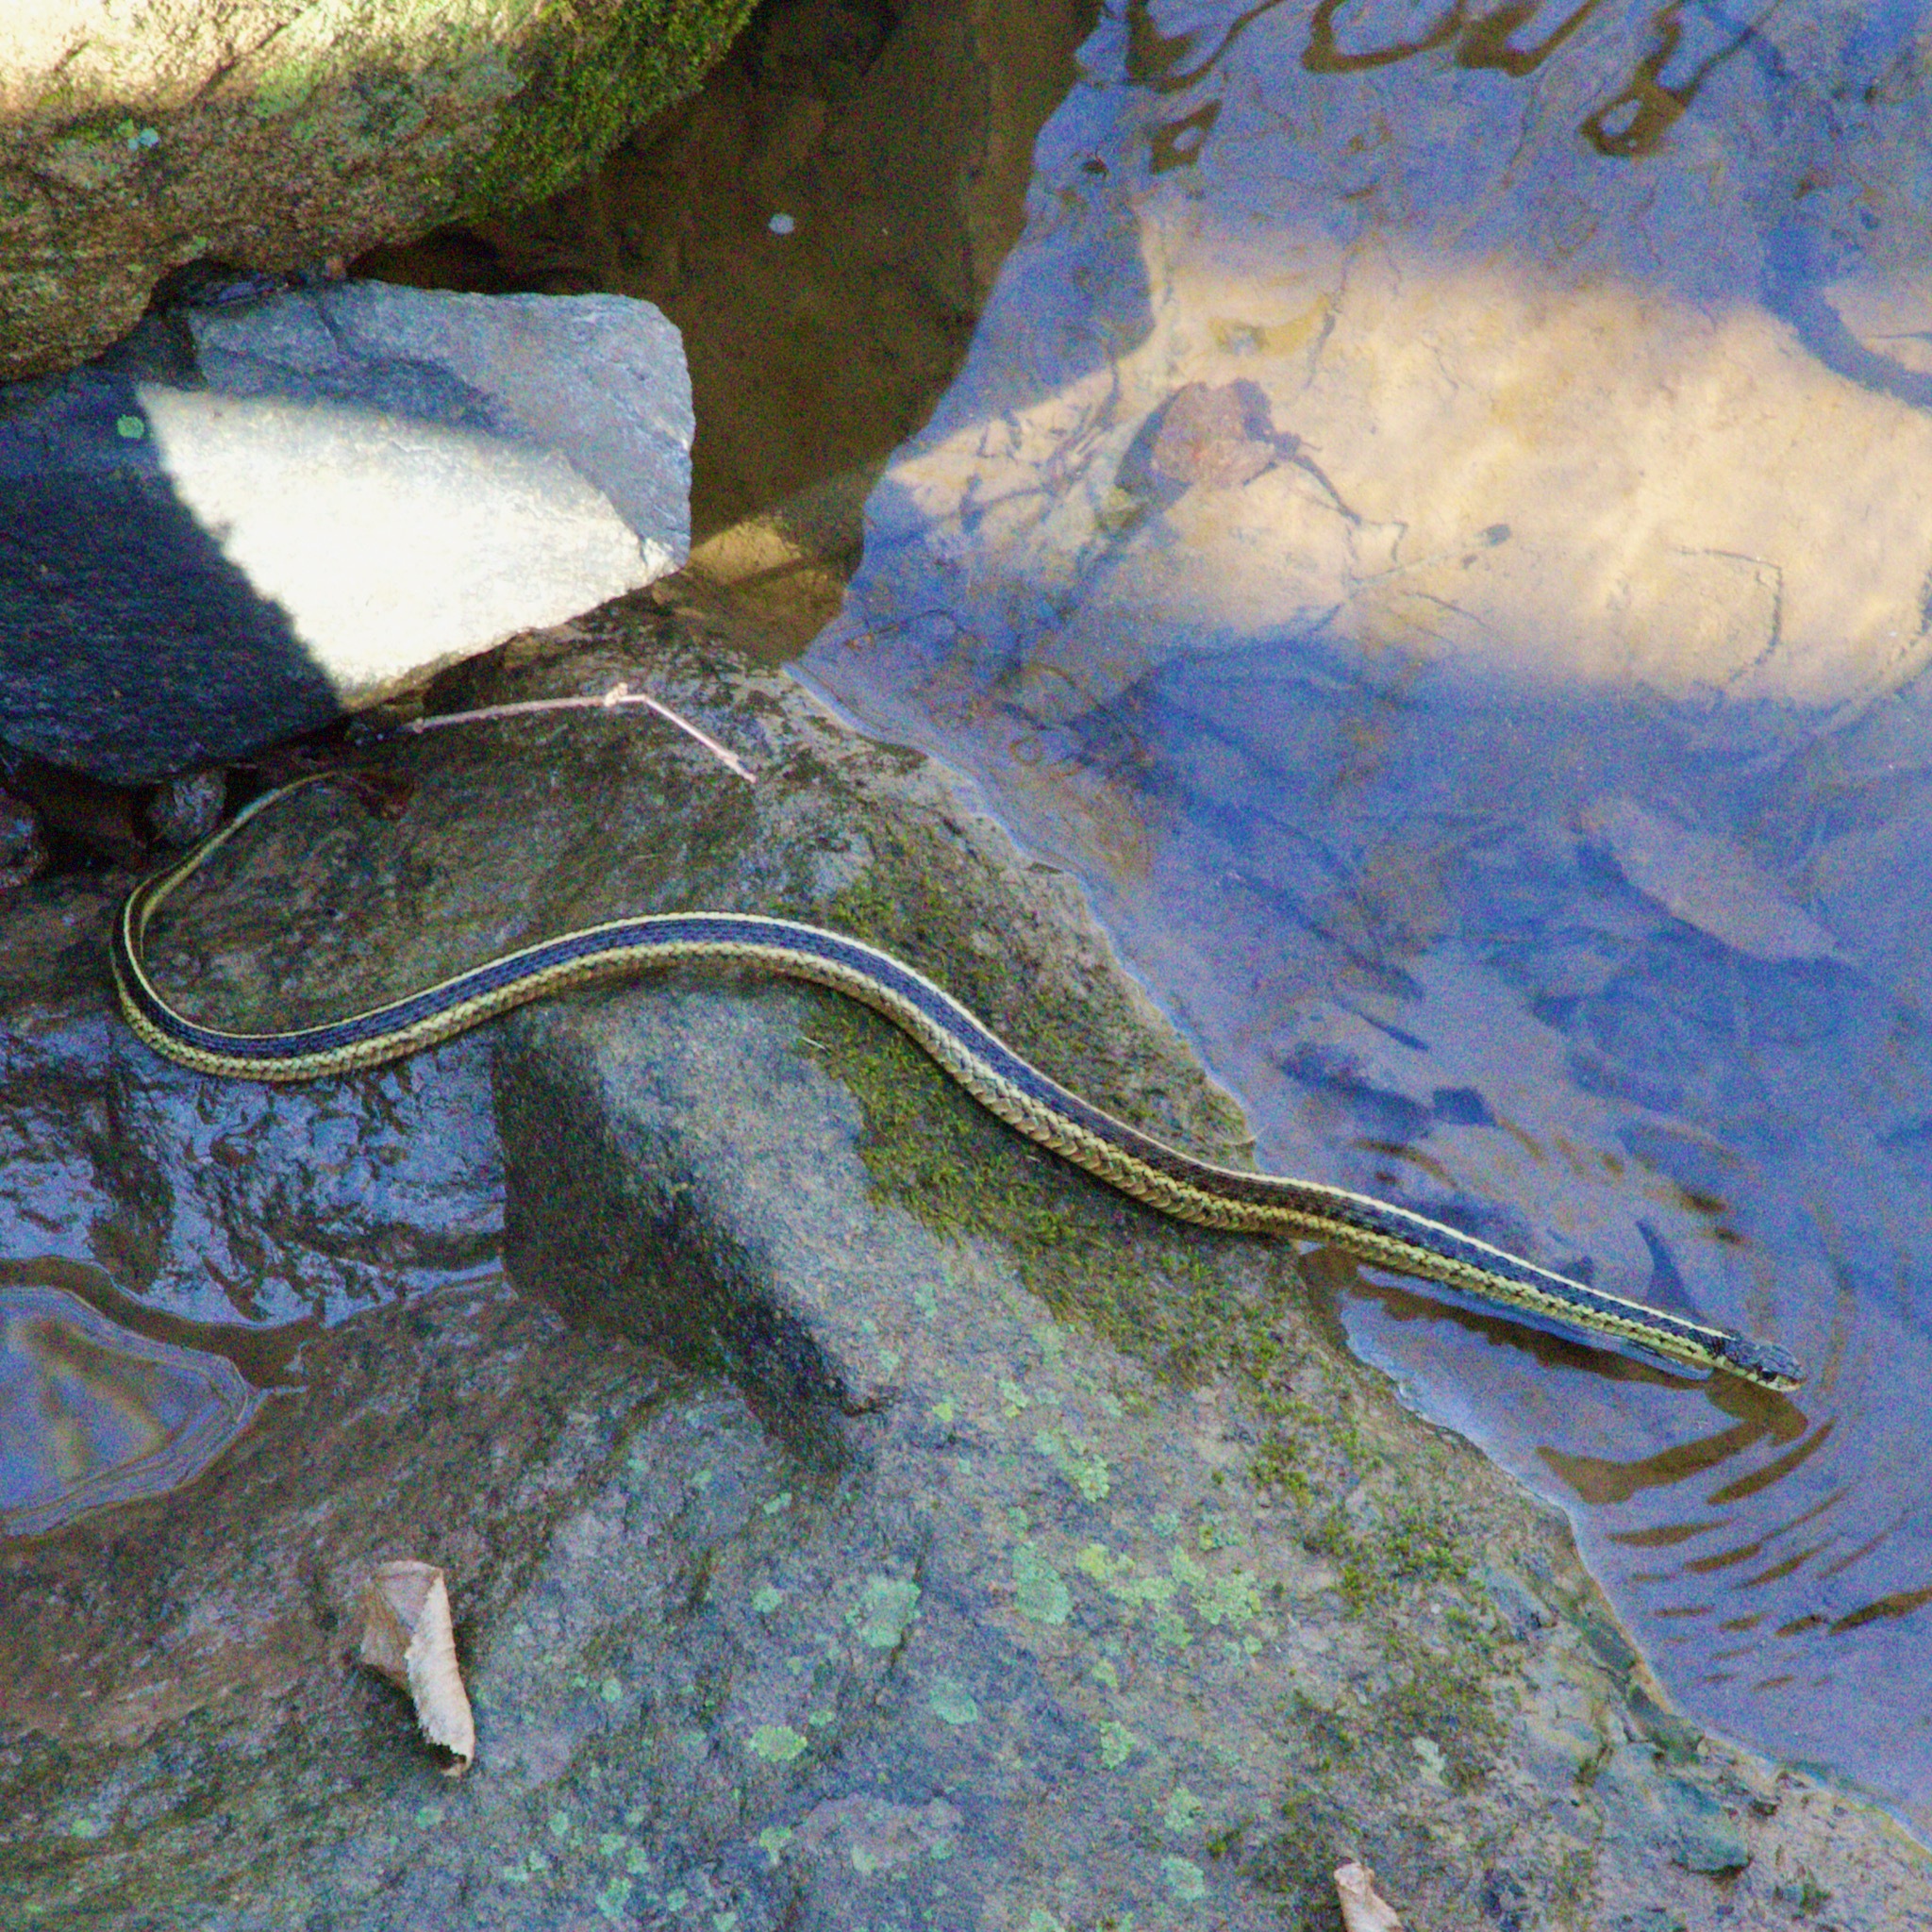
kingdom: Animalia
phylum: Chordata
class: Squamata
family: Colubridae
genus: Thamnophis
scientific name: Thamnophis sirtalis
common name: Common garter snake
